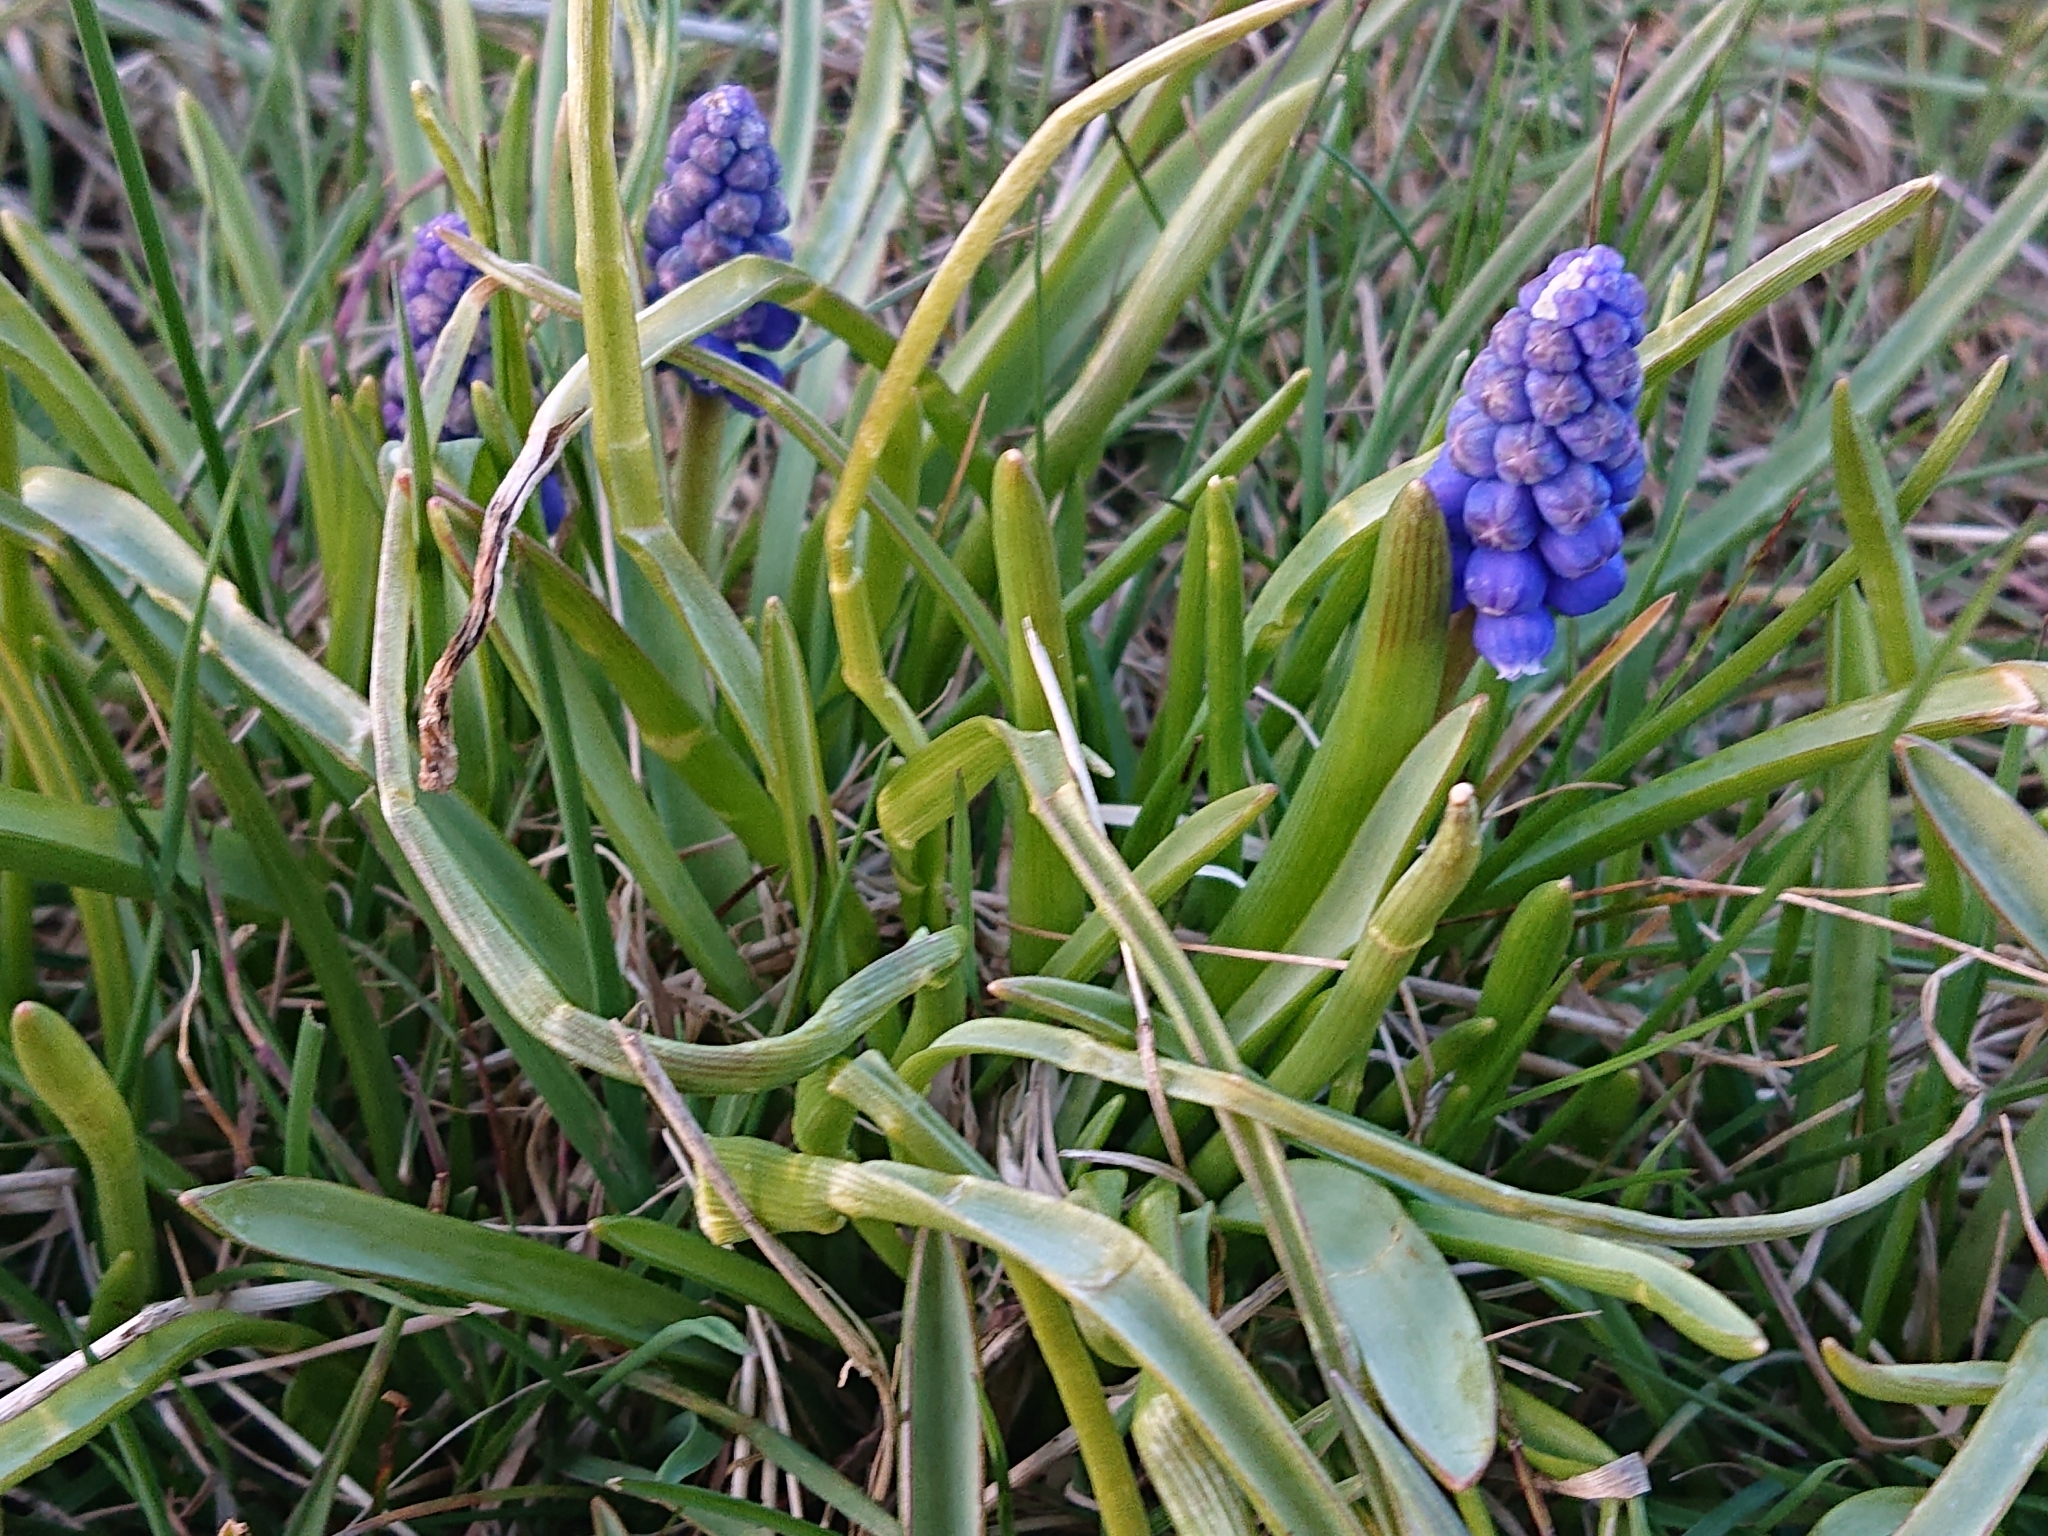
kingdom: Plantae
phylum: Tracheophyta
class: Liliopsida
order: Asparagales
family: Asparagaceae
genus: Muscari
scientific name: Muscari botryoides
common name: Compact grape-hyacinth
